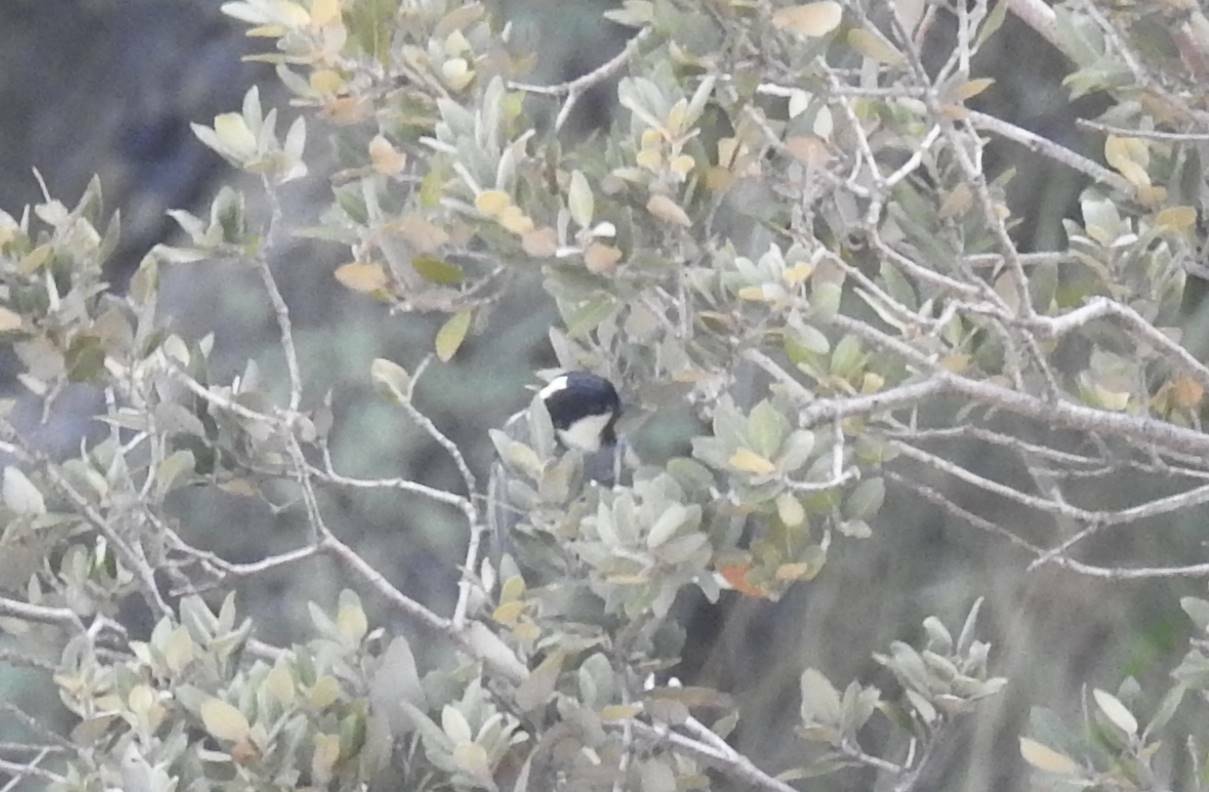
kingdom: Animalia
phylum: Chordata
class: Aves
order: Passeriformes
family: Paridae
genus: Periparus
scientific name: Periparus ater
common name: Coal tit
